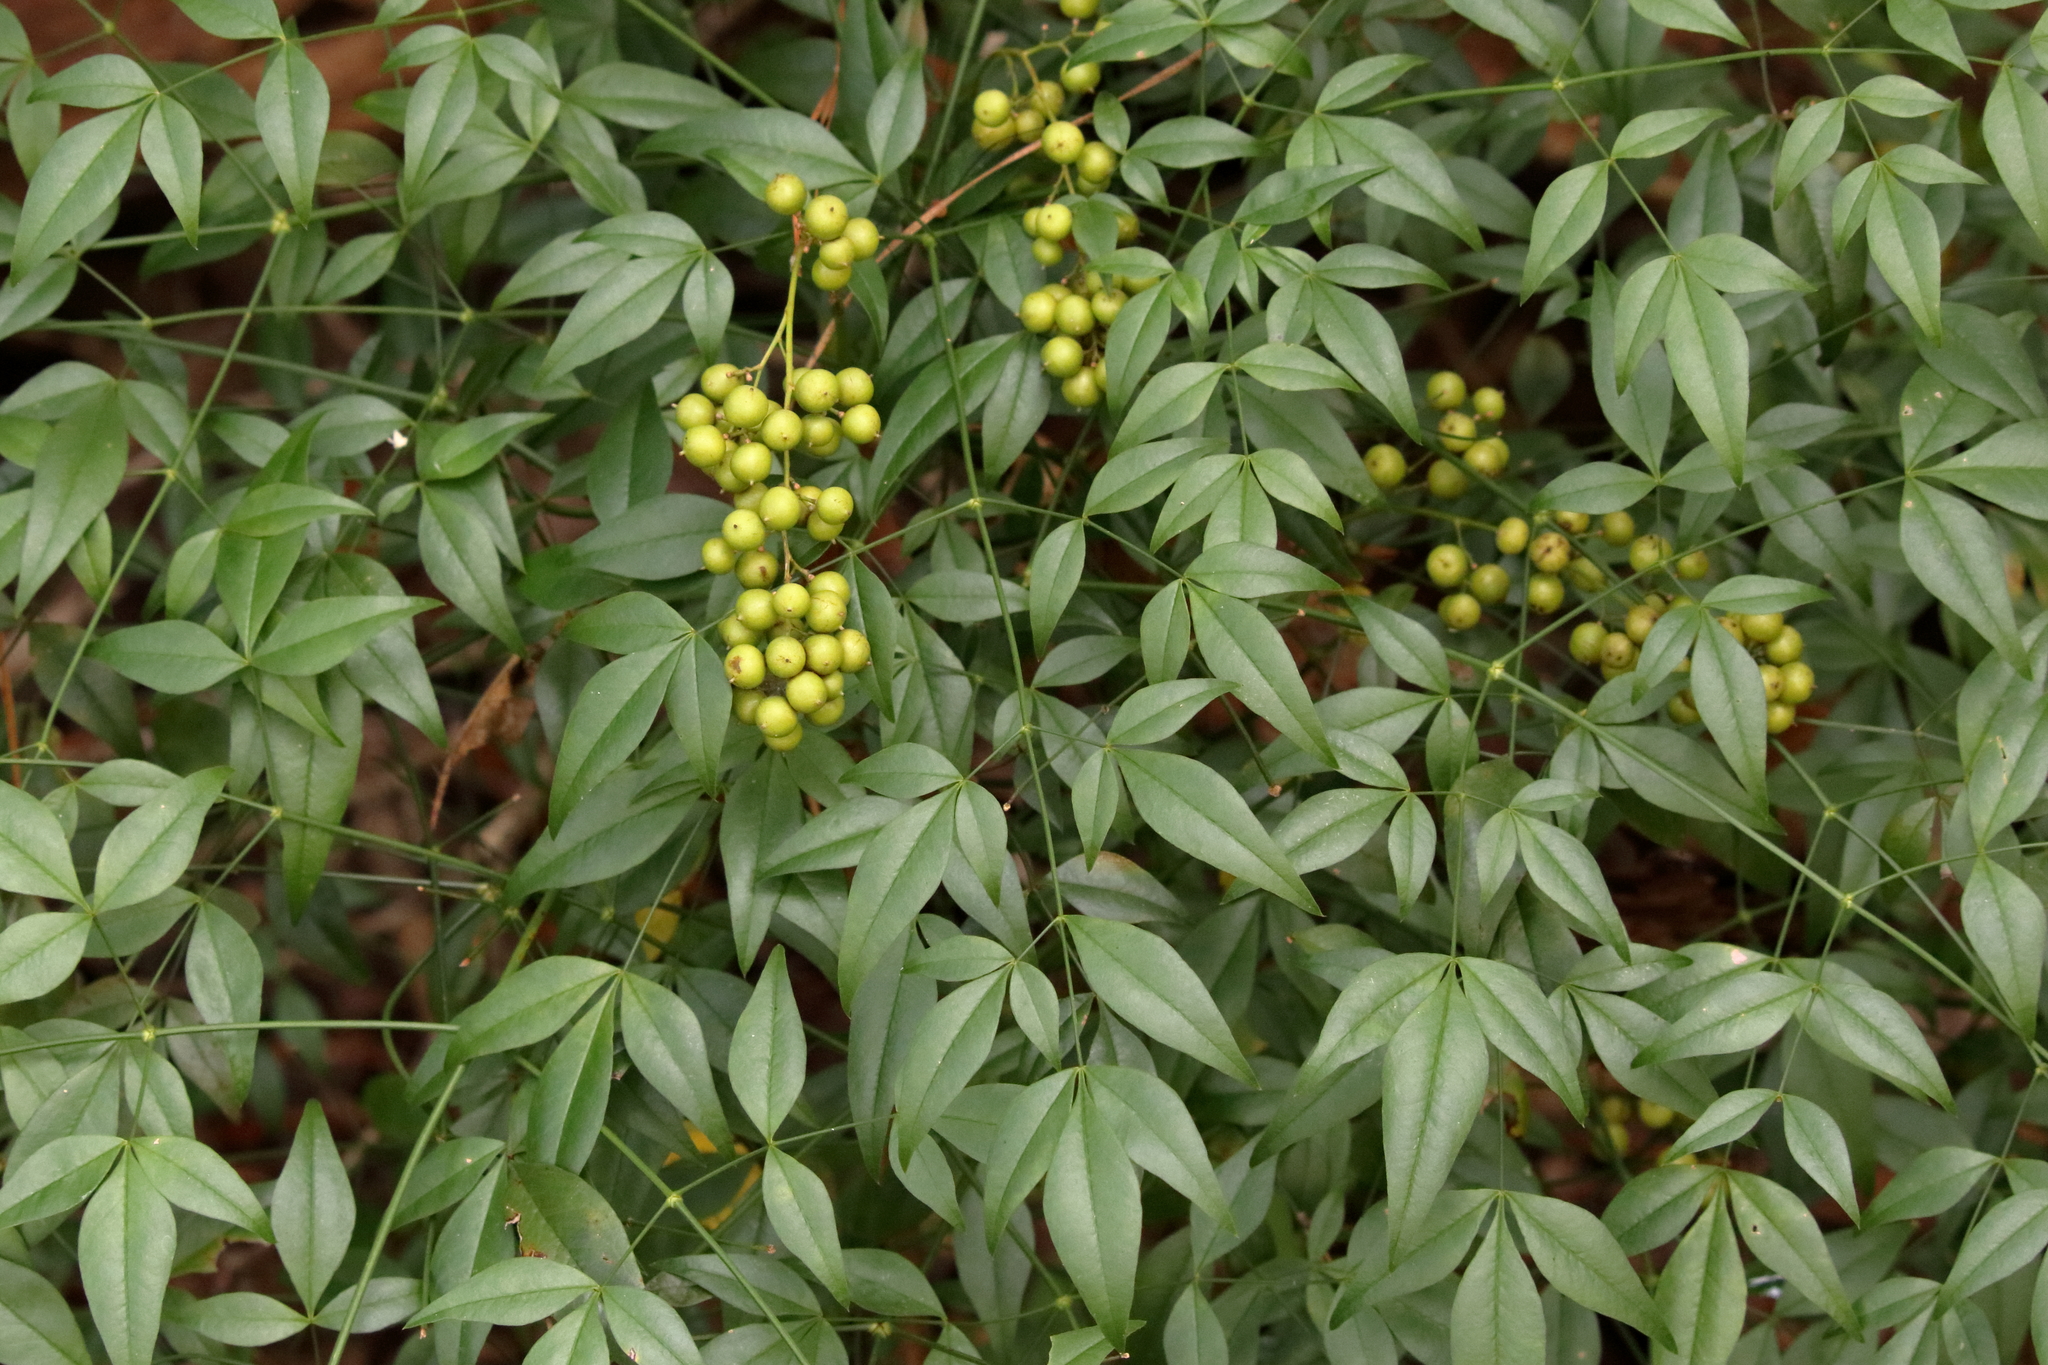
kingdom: Plantae
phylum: Tracheophyta
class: Magnoliopsida
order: Ranunculales
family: Berberidaceae
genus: Nandina
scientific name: Nandina domestica
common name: Sacred bamboo
